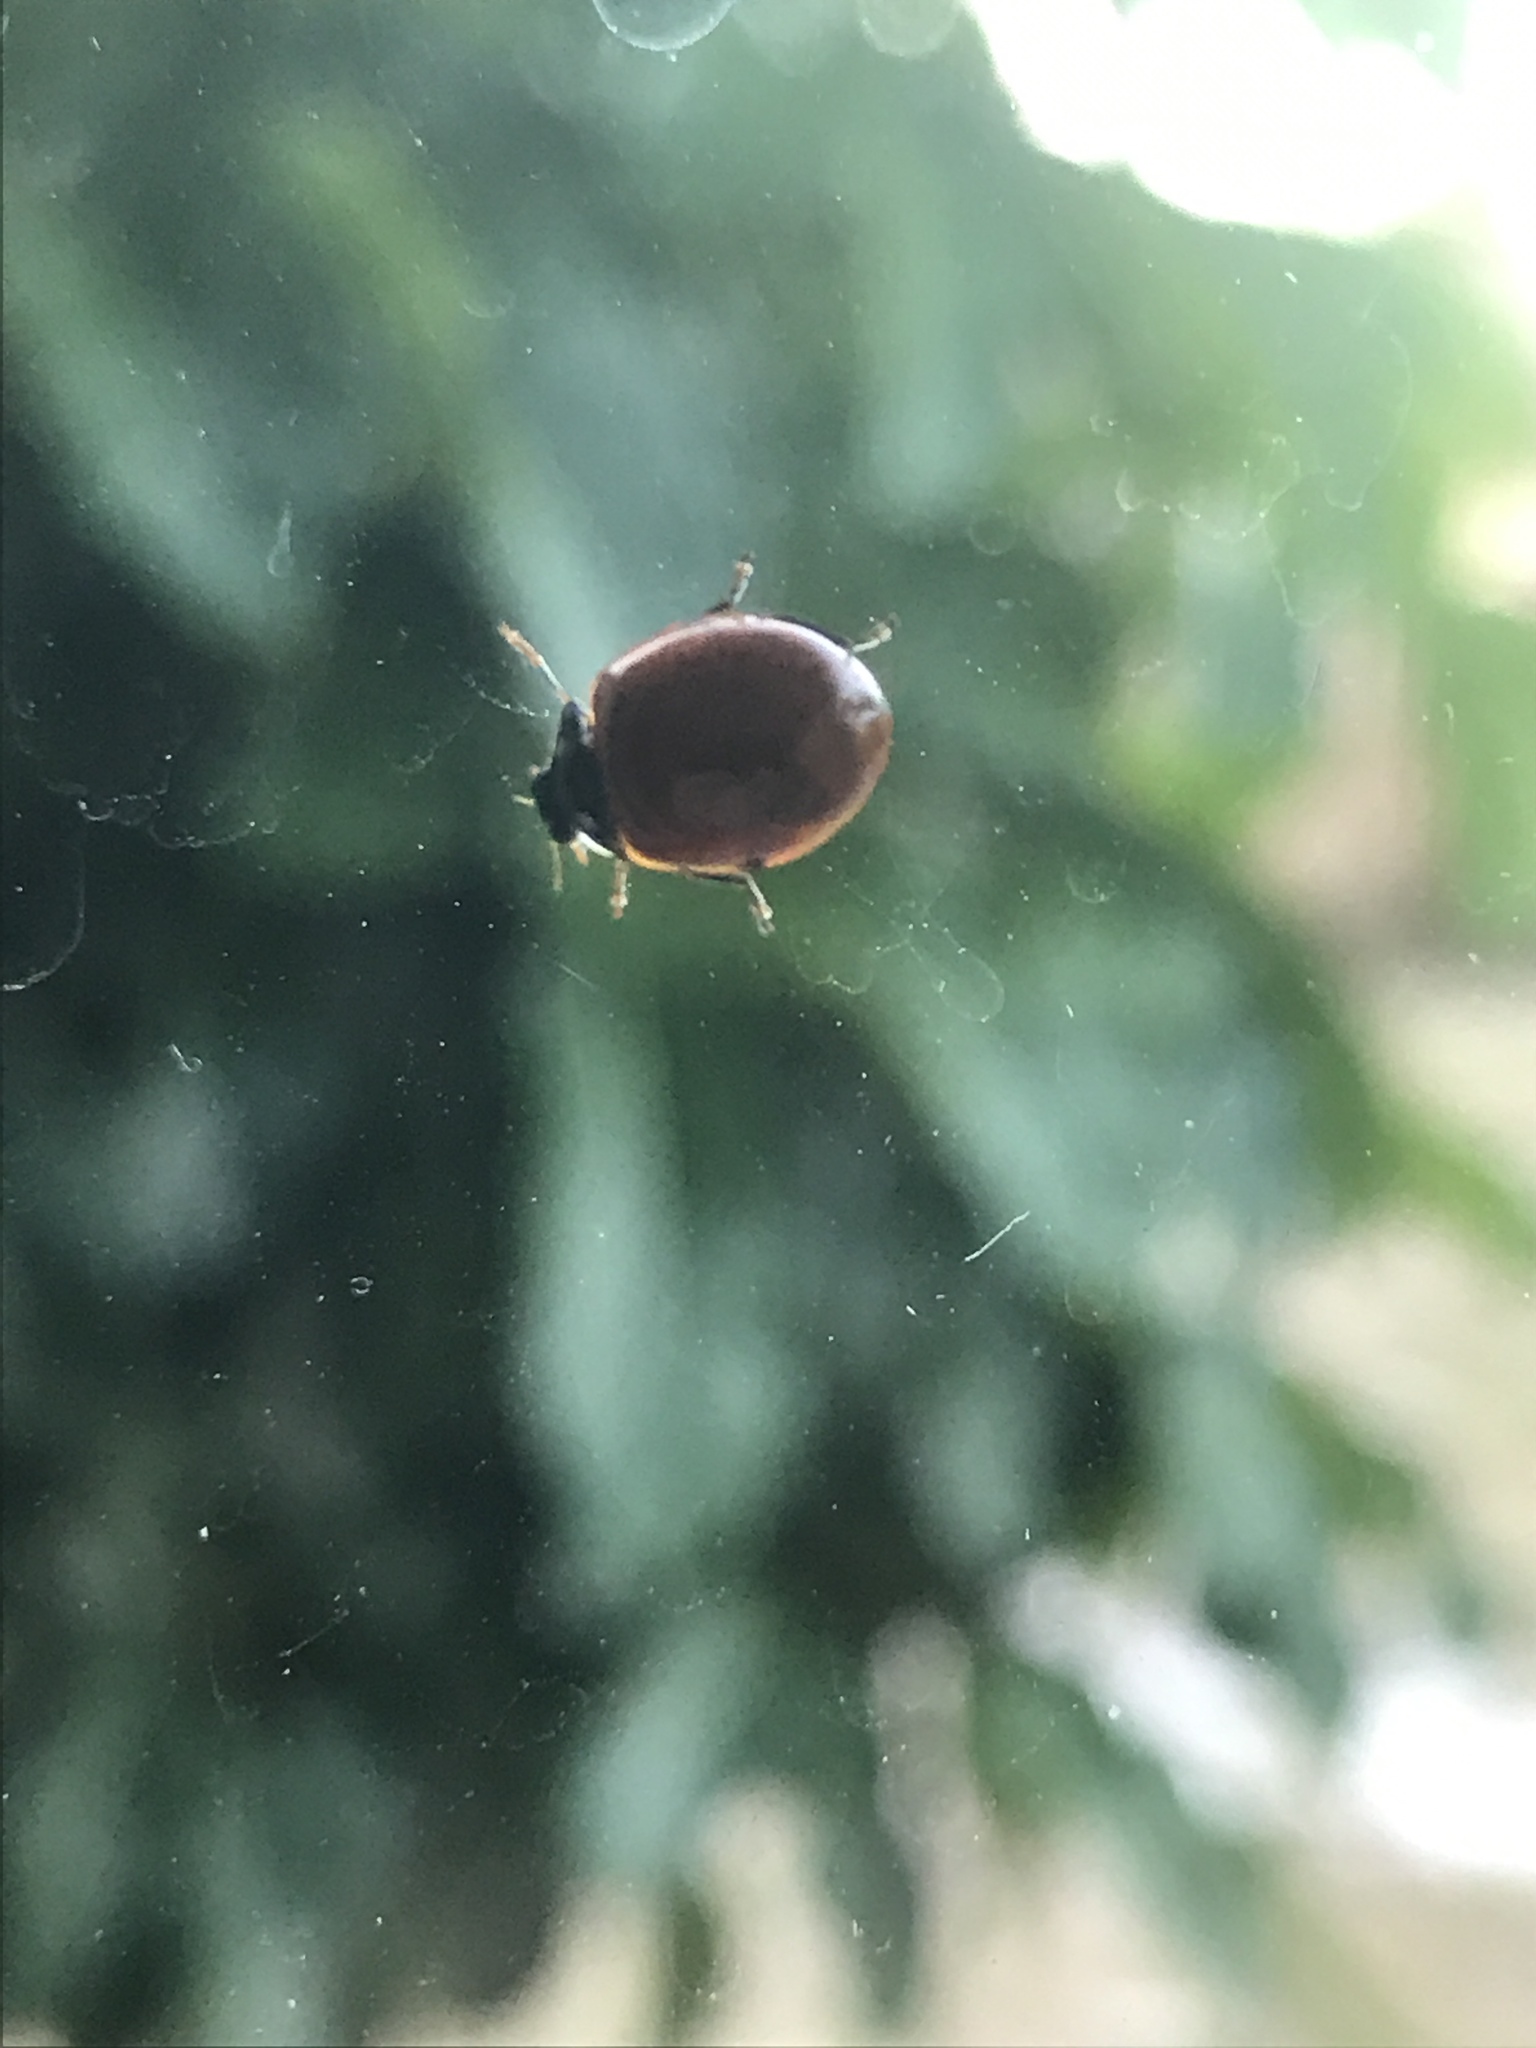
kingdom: Animalia
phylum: Arthropoda
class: Insecta
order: Coleoptera
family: Coccinellidae
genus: Cycloneda
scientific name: Cycloneda sanguinea
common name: Ladybird beetle
